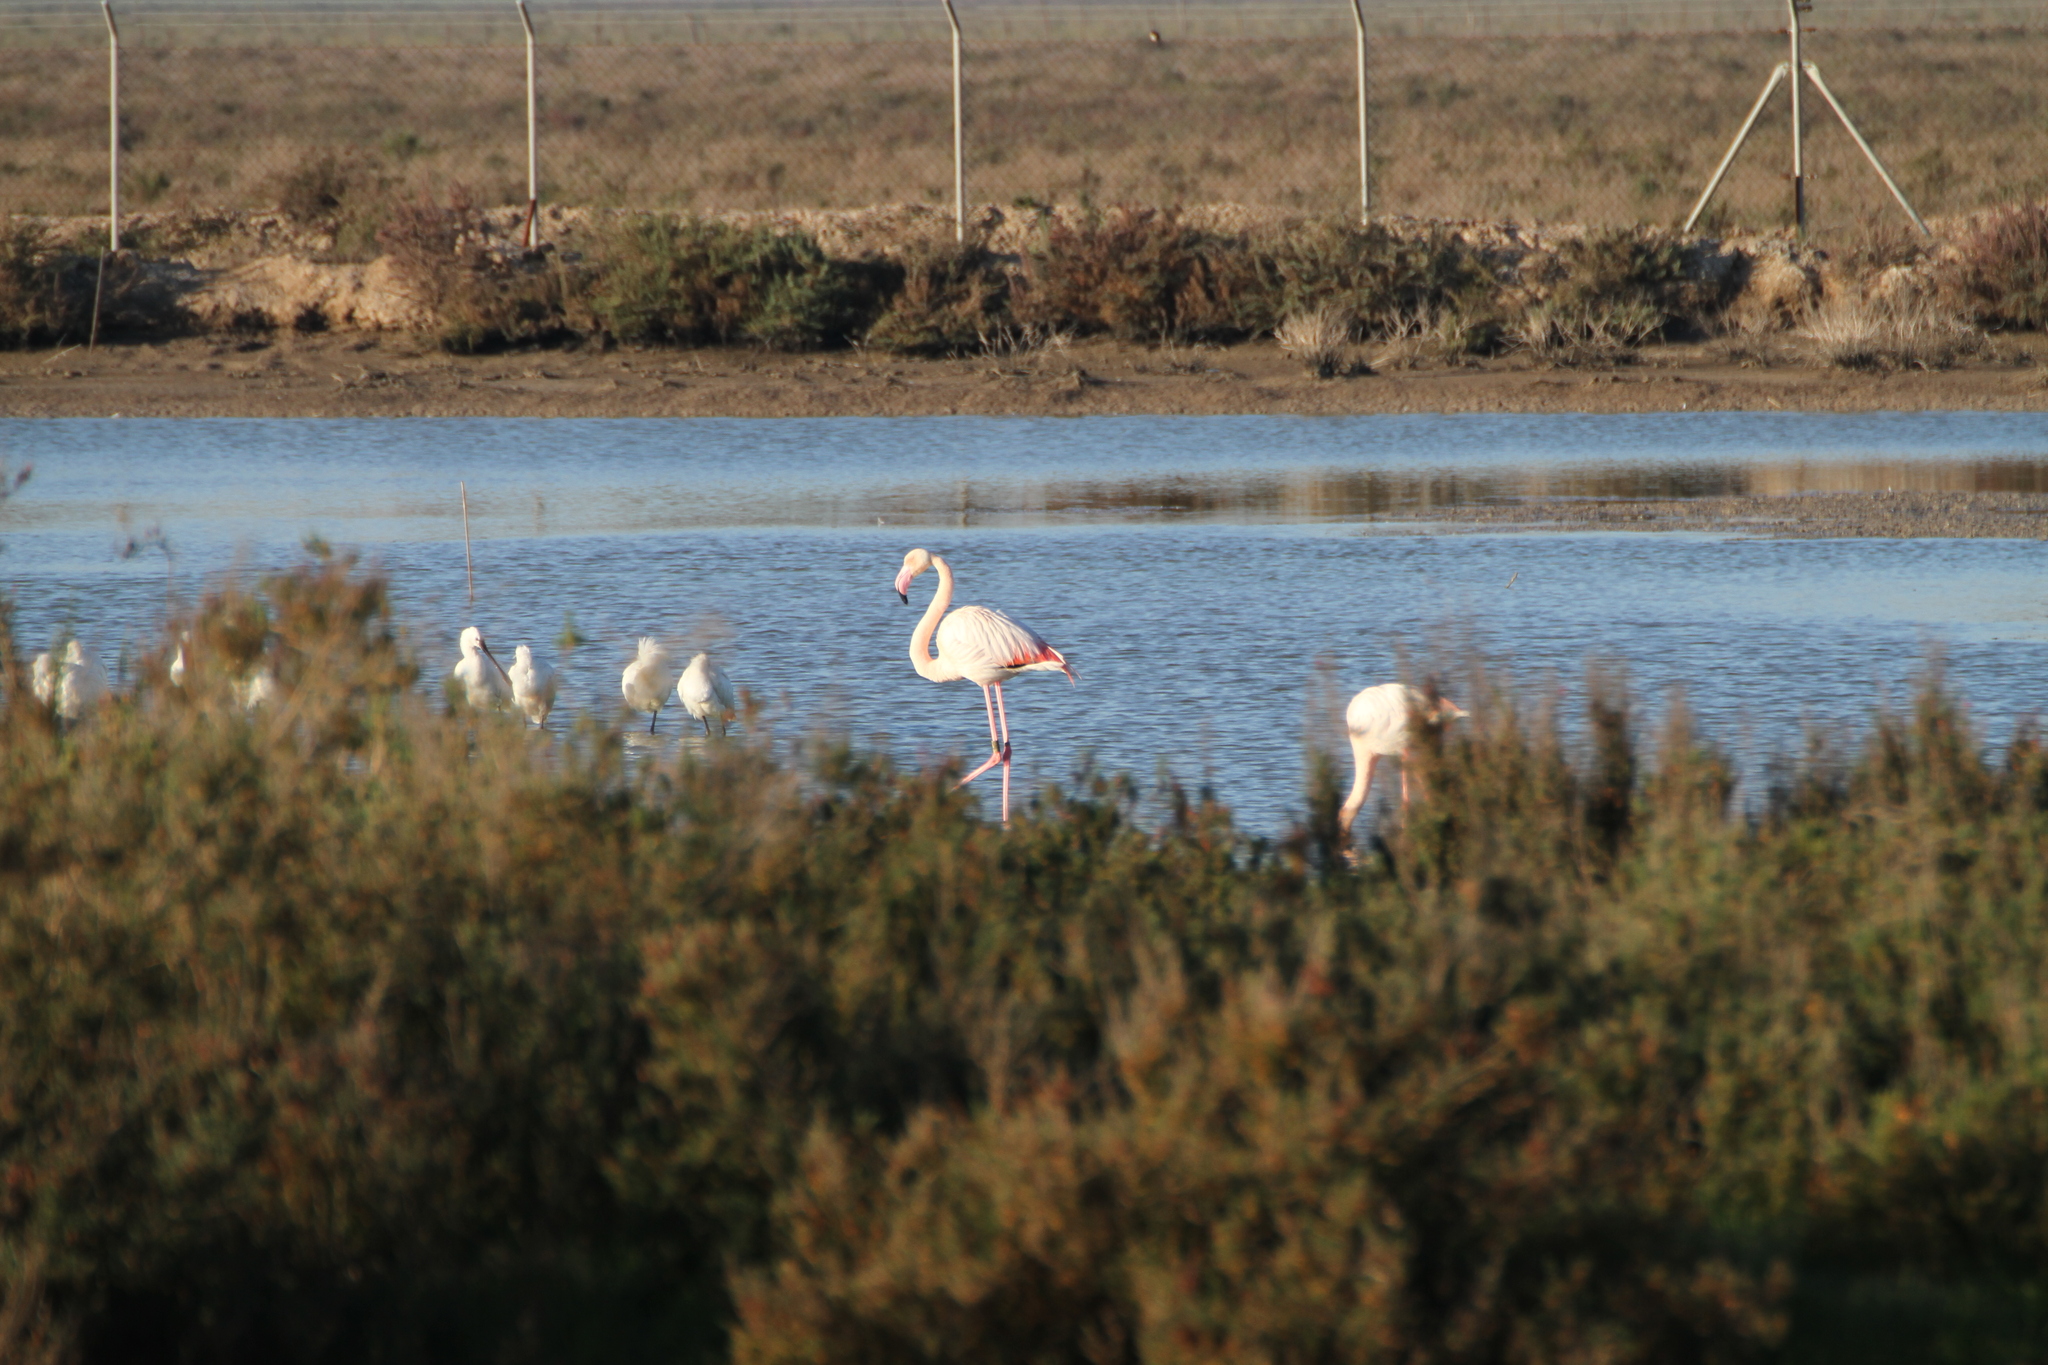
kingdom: Animalia
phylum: Chordata
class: Aves
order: Phoenicopteriformes
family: Phoenicopteridae
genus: Phoenicopterus
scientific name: Phoenicopterus roseus
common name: Greater flamingo
